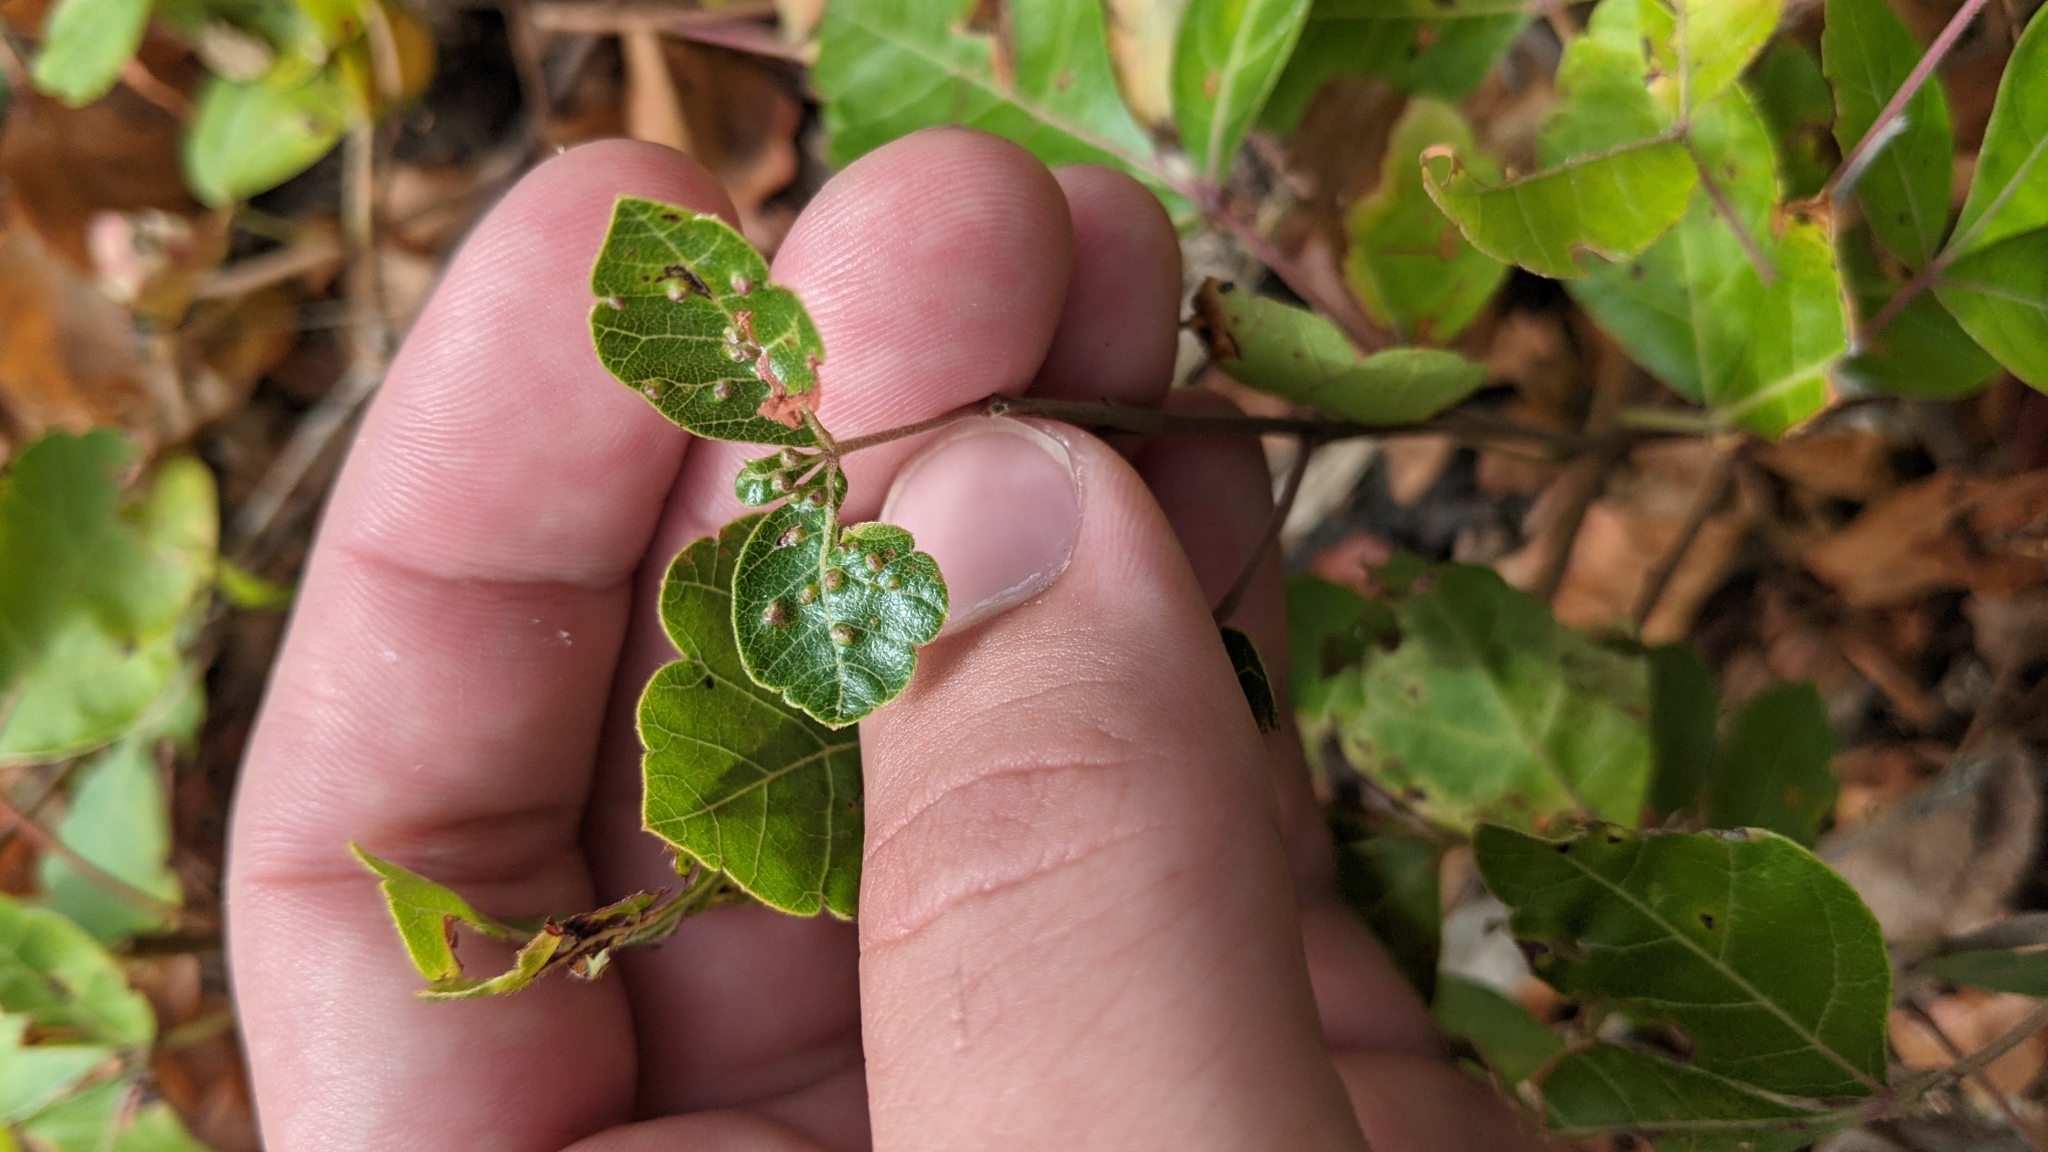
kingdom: Animalia
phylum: Arthropoda
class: Arachnida
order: Trombidiformes
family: Eriophyidae
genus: Aculops
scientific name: Aculops
